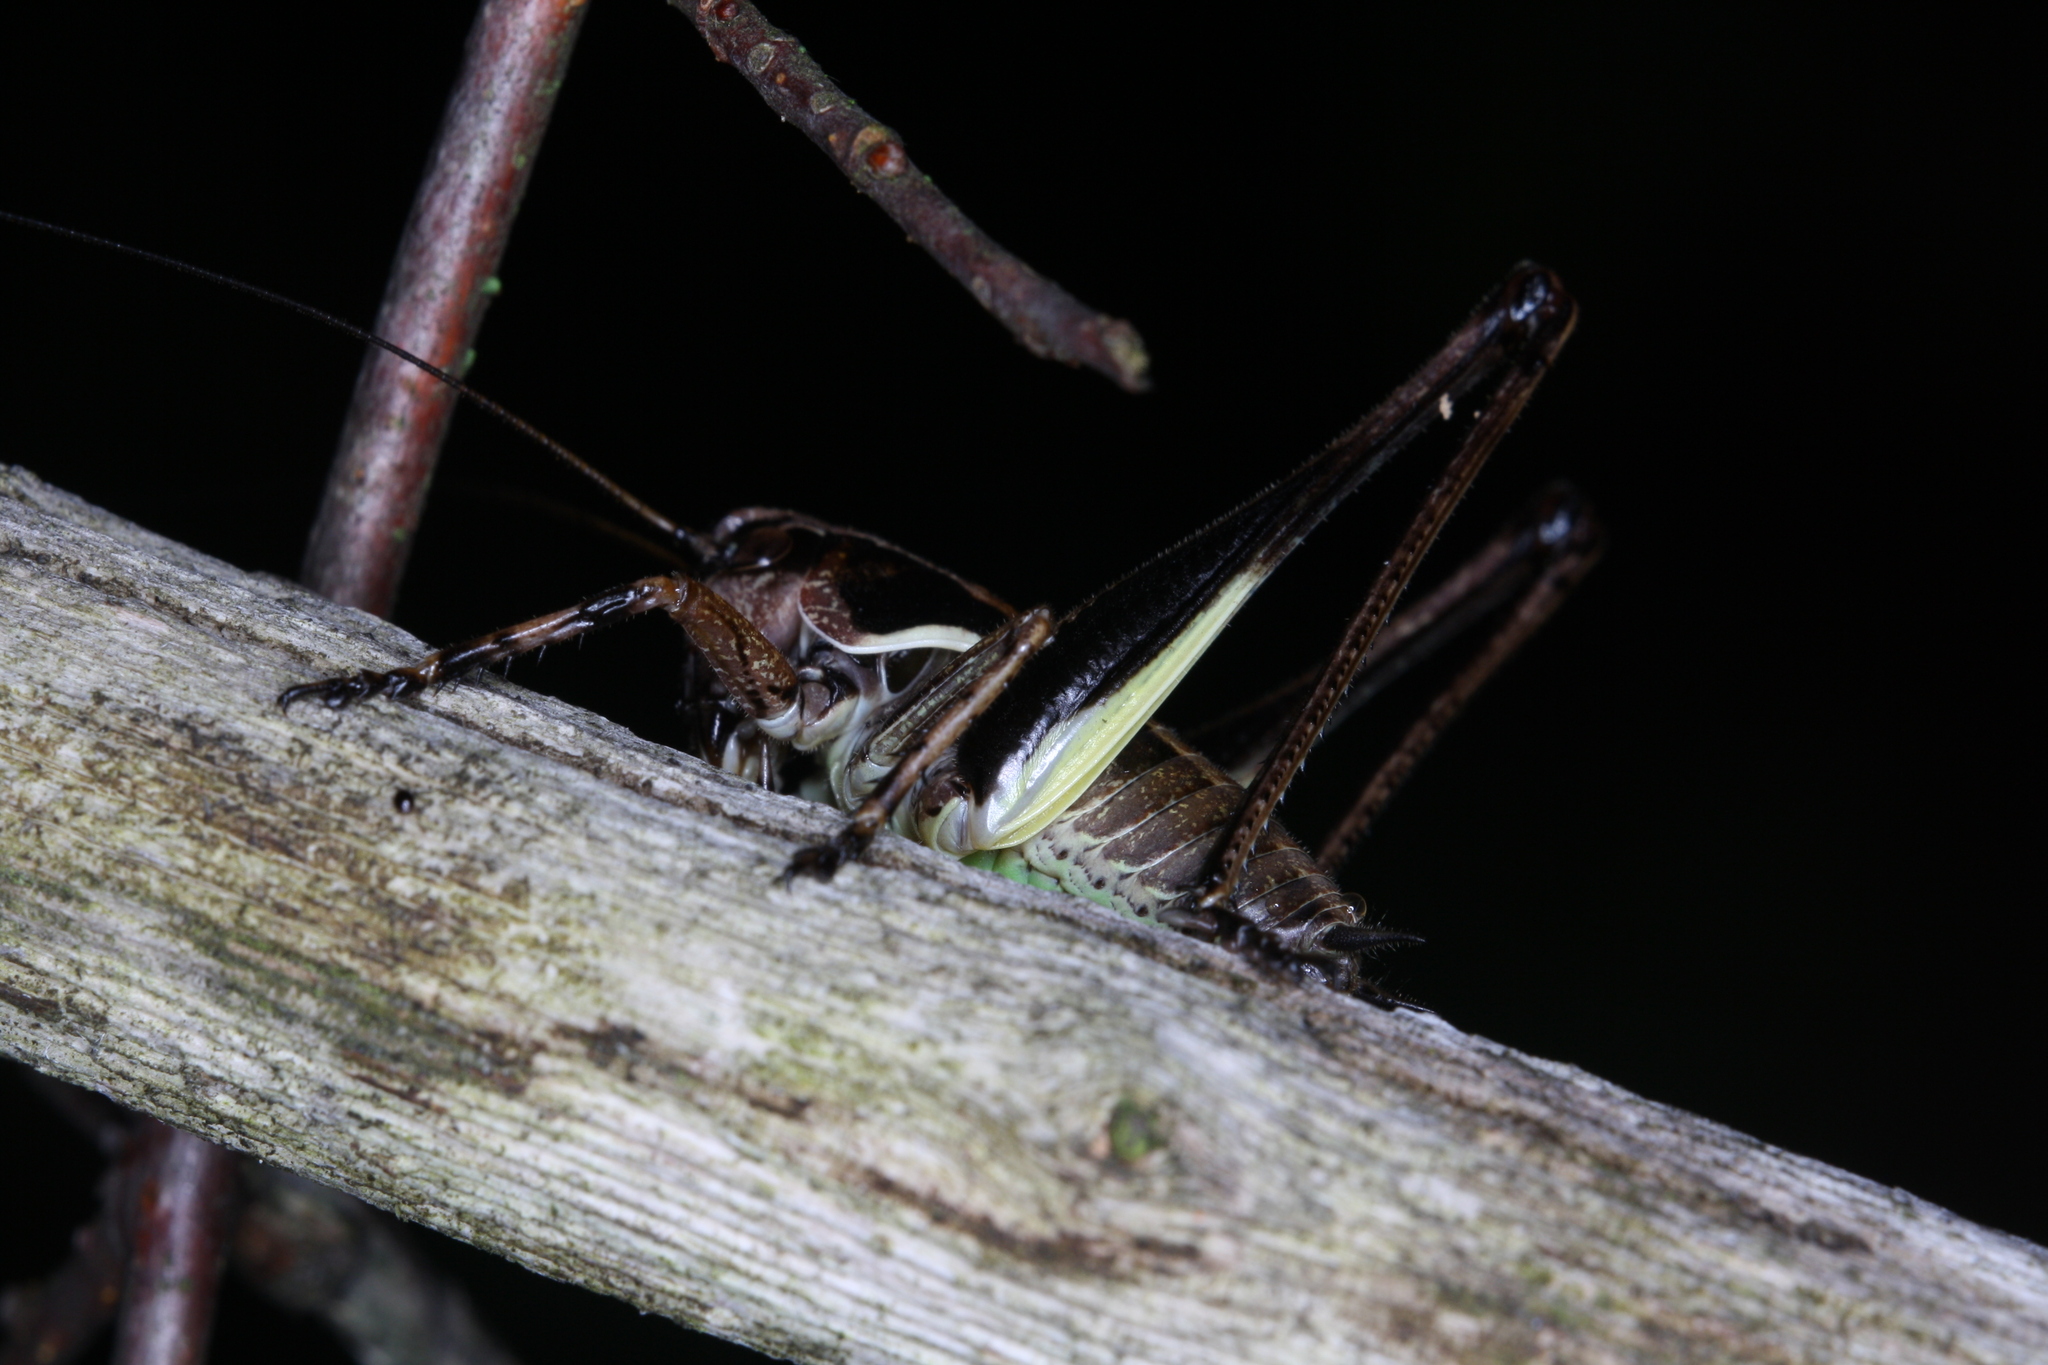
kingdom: Animalia
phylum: Arthropoda
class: Insecta
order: Orthoptera
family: Tettigoniidae
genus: Pholidoptera
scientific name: Pholidoptera aptera
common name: Alpine dark bush-cricket
